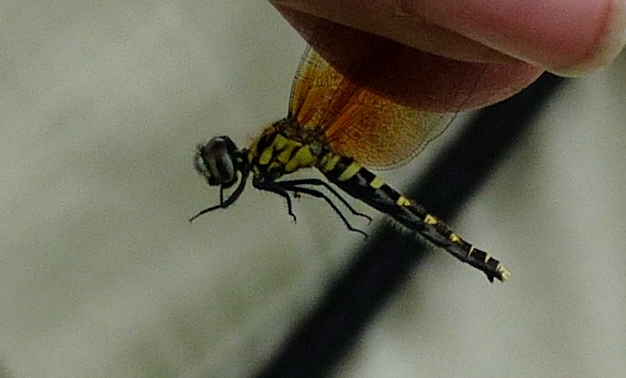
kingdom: Animalia
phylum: Arthropoda
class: Insecta
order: Odonata
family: Libellulidae
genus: Nannothemis
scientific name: Nannothemis bella
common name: Elfin skimmer
